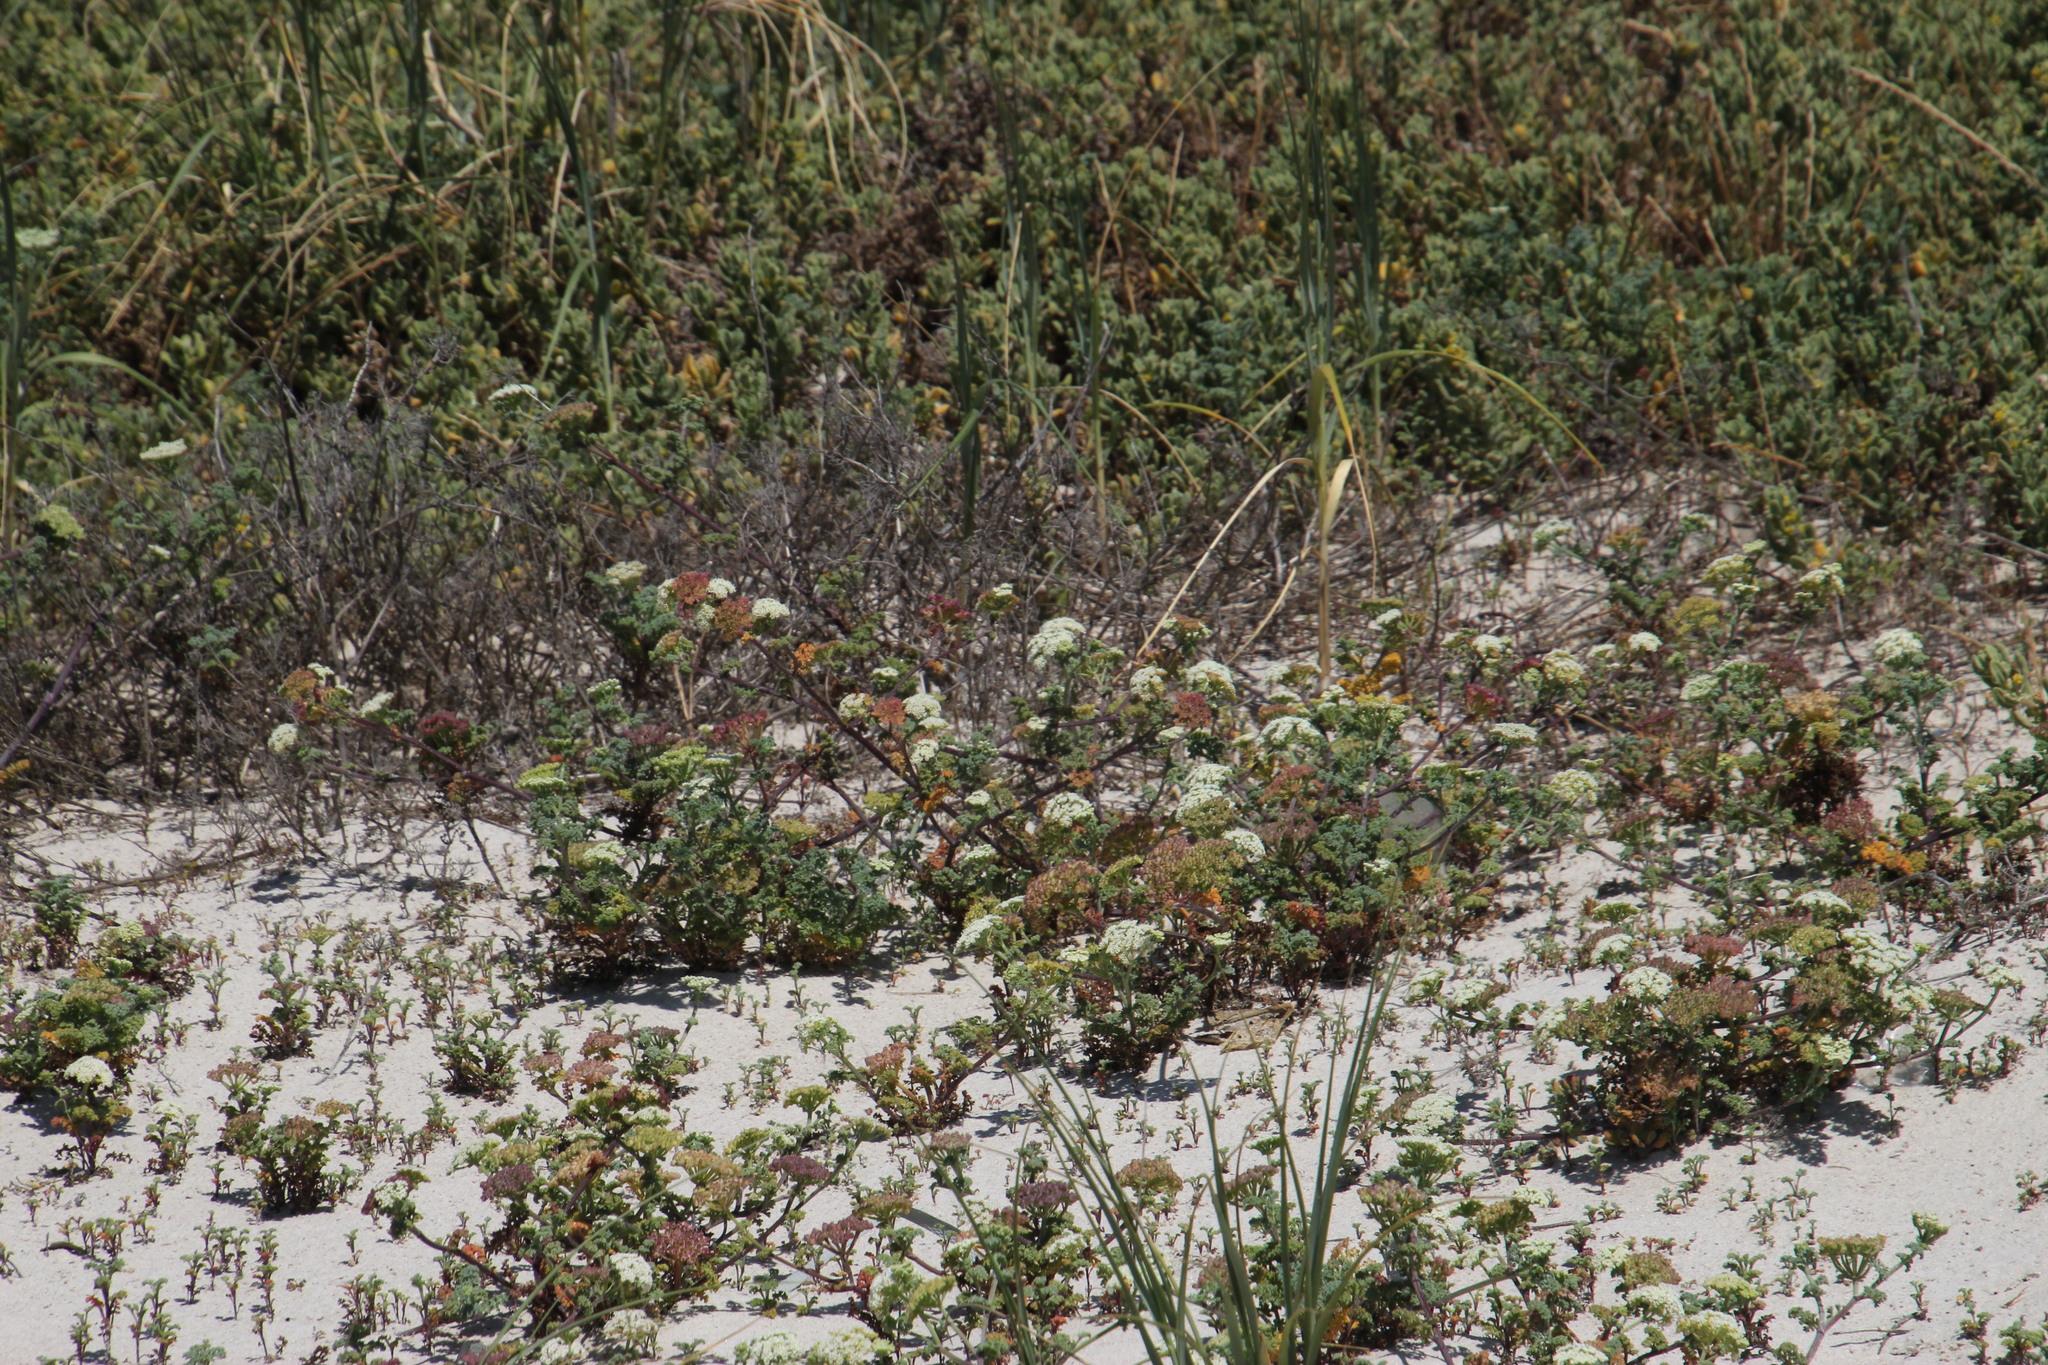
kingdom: Plantae
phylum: Tracheophyta
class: Magnoliopsida
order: Apiales
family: Apiaceae
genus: Dasispermum
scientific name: Dasispermum suffruticosum
